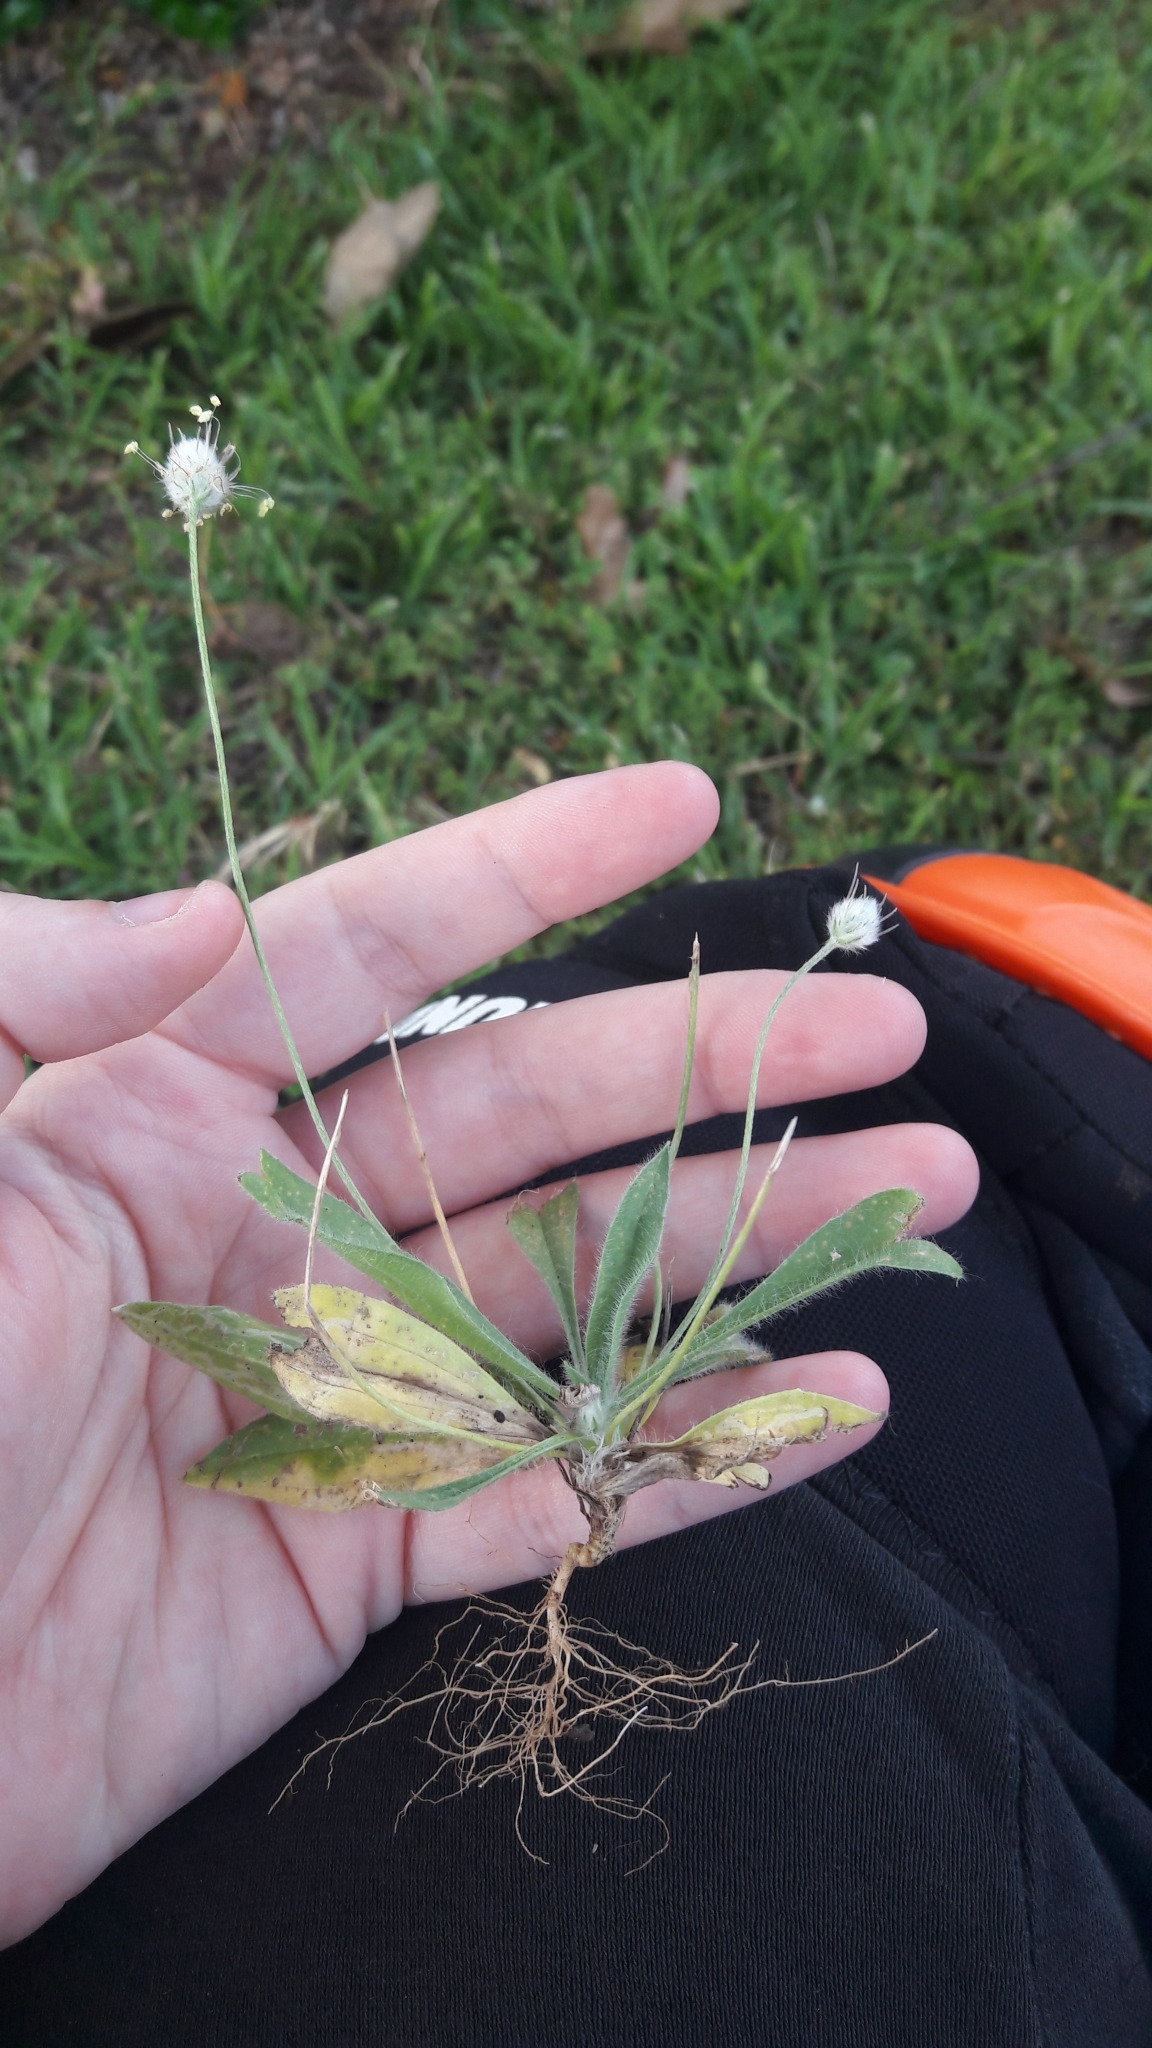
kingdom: Plantae
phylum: Tracheophyta
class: Magnoliopsida
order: Lamiales
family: Plantaginaceae
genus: Plantago
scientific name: Plantago lagopus
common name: Hare-foot plantain
